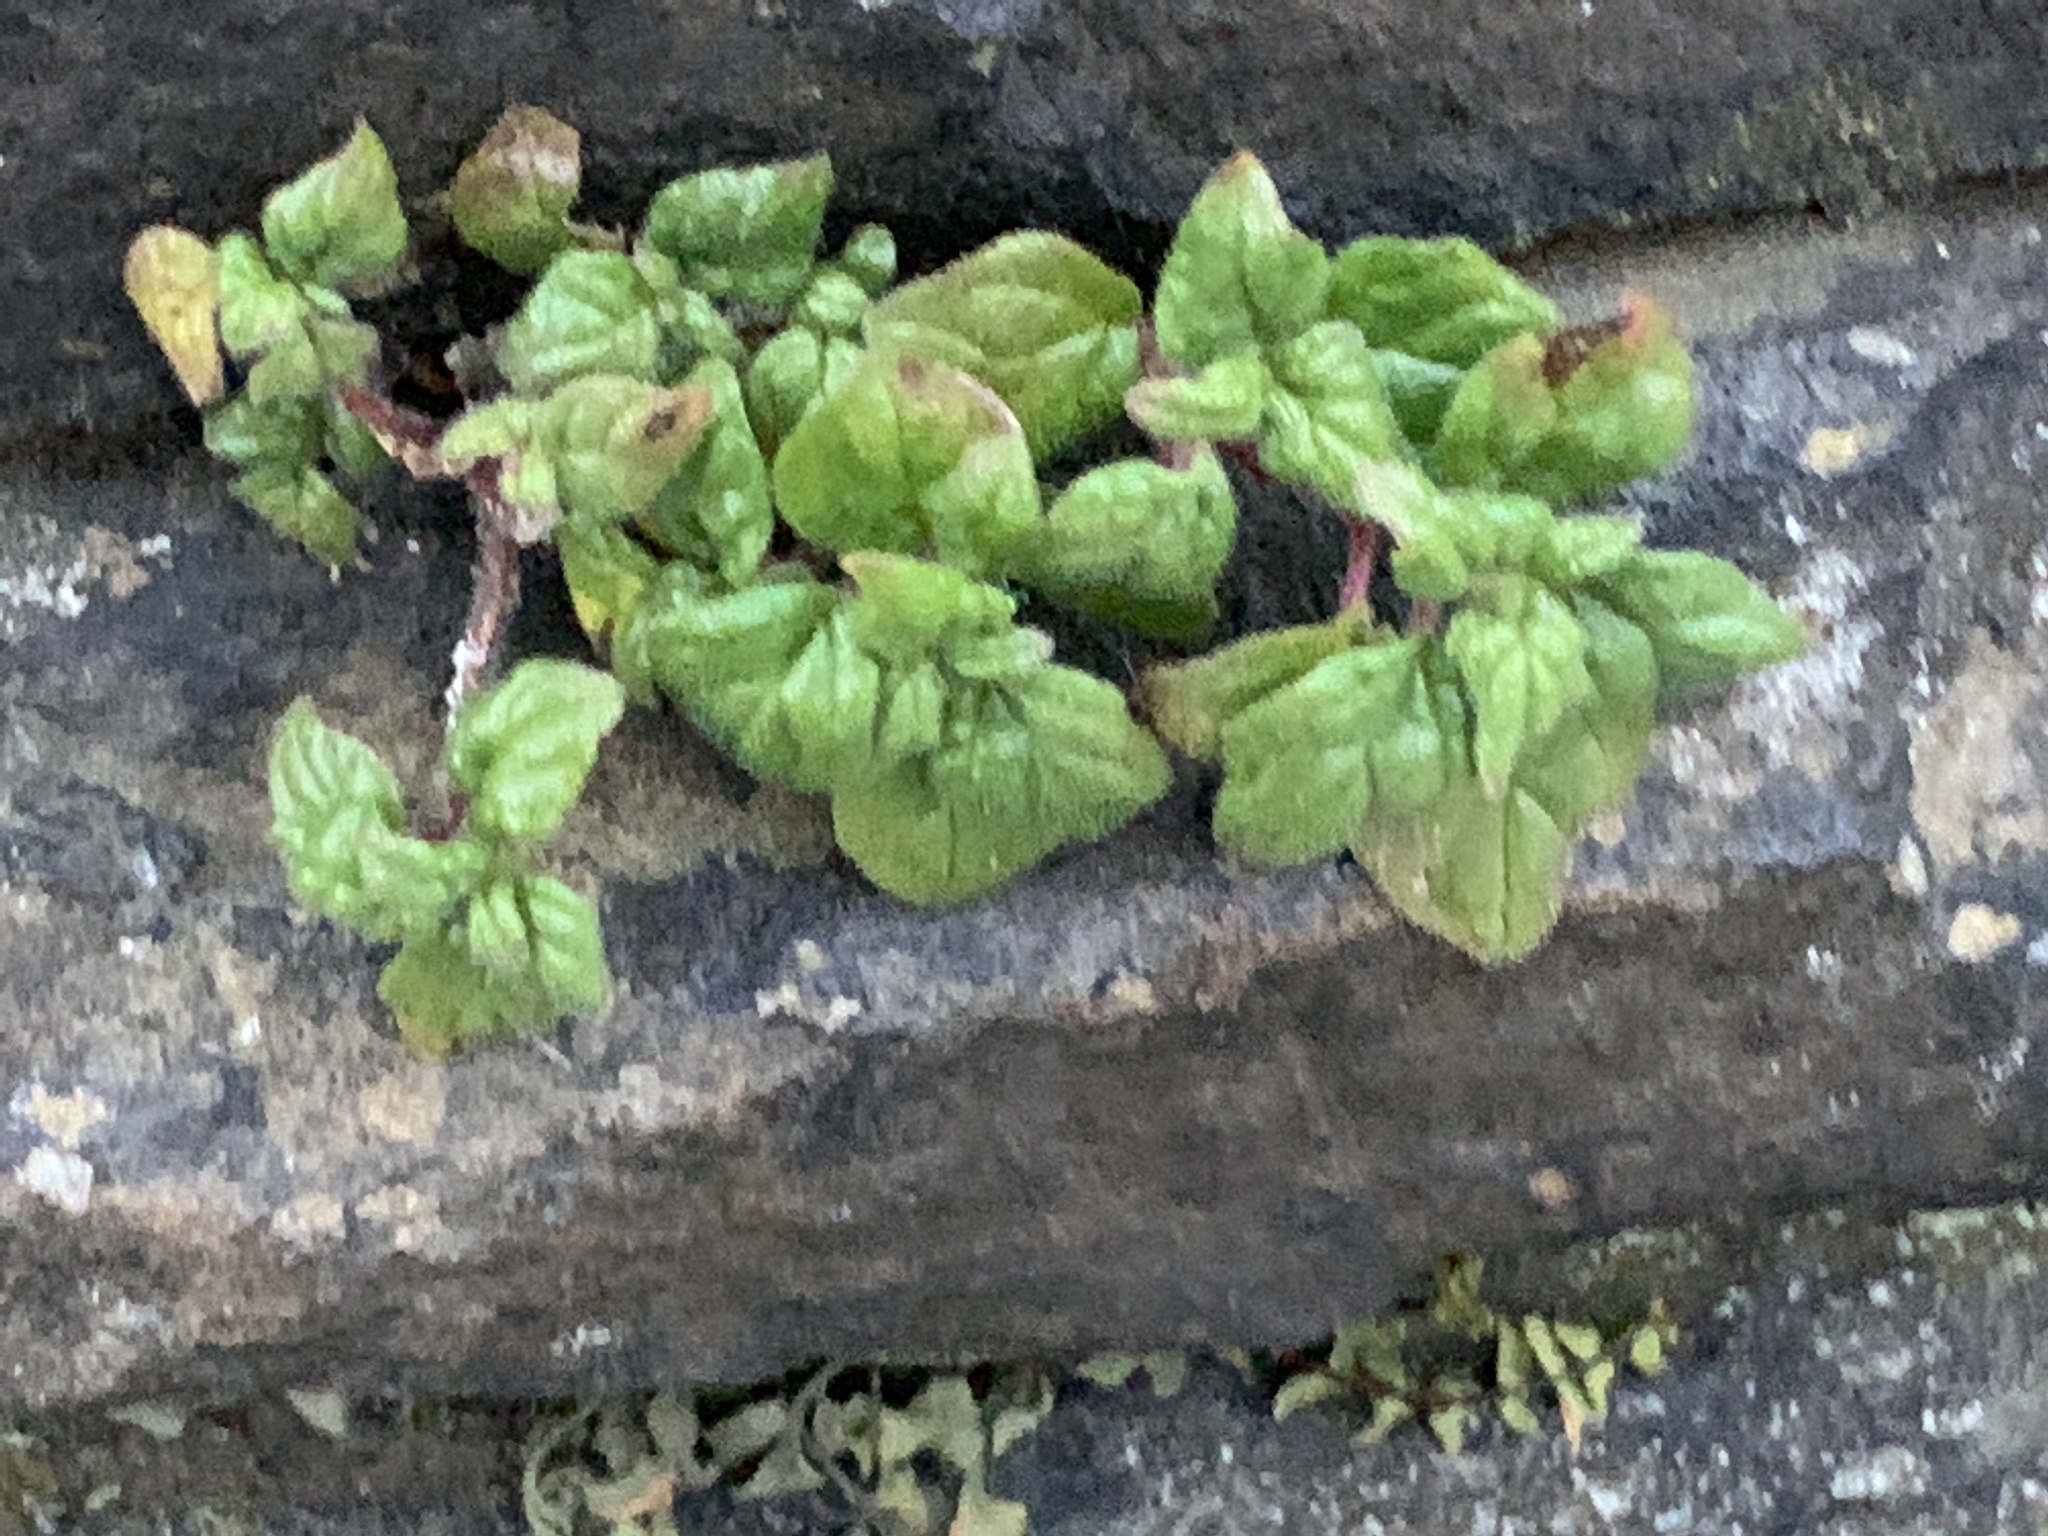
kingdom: Plantae
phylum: Tracheophyta
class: Magnoliopsida
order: Rosales
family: Urticaceae
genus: Parietaria
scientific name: Parietaria judaica
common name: Pellitory-of-the-wall
